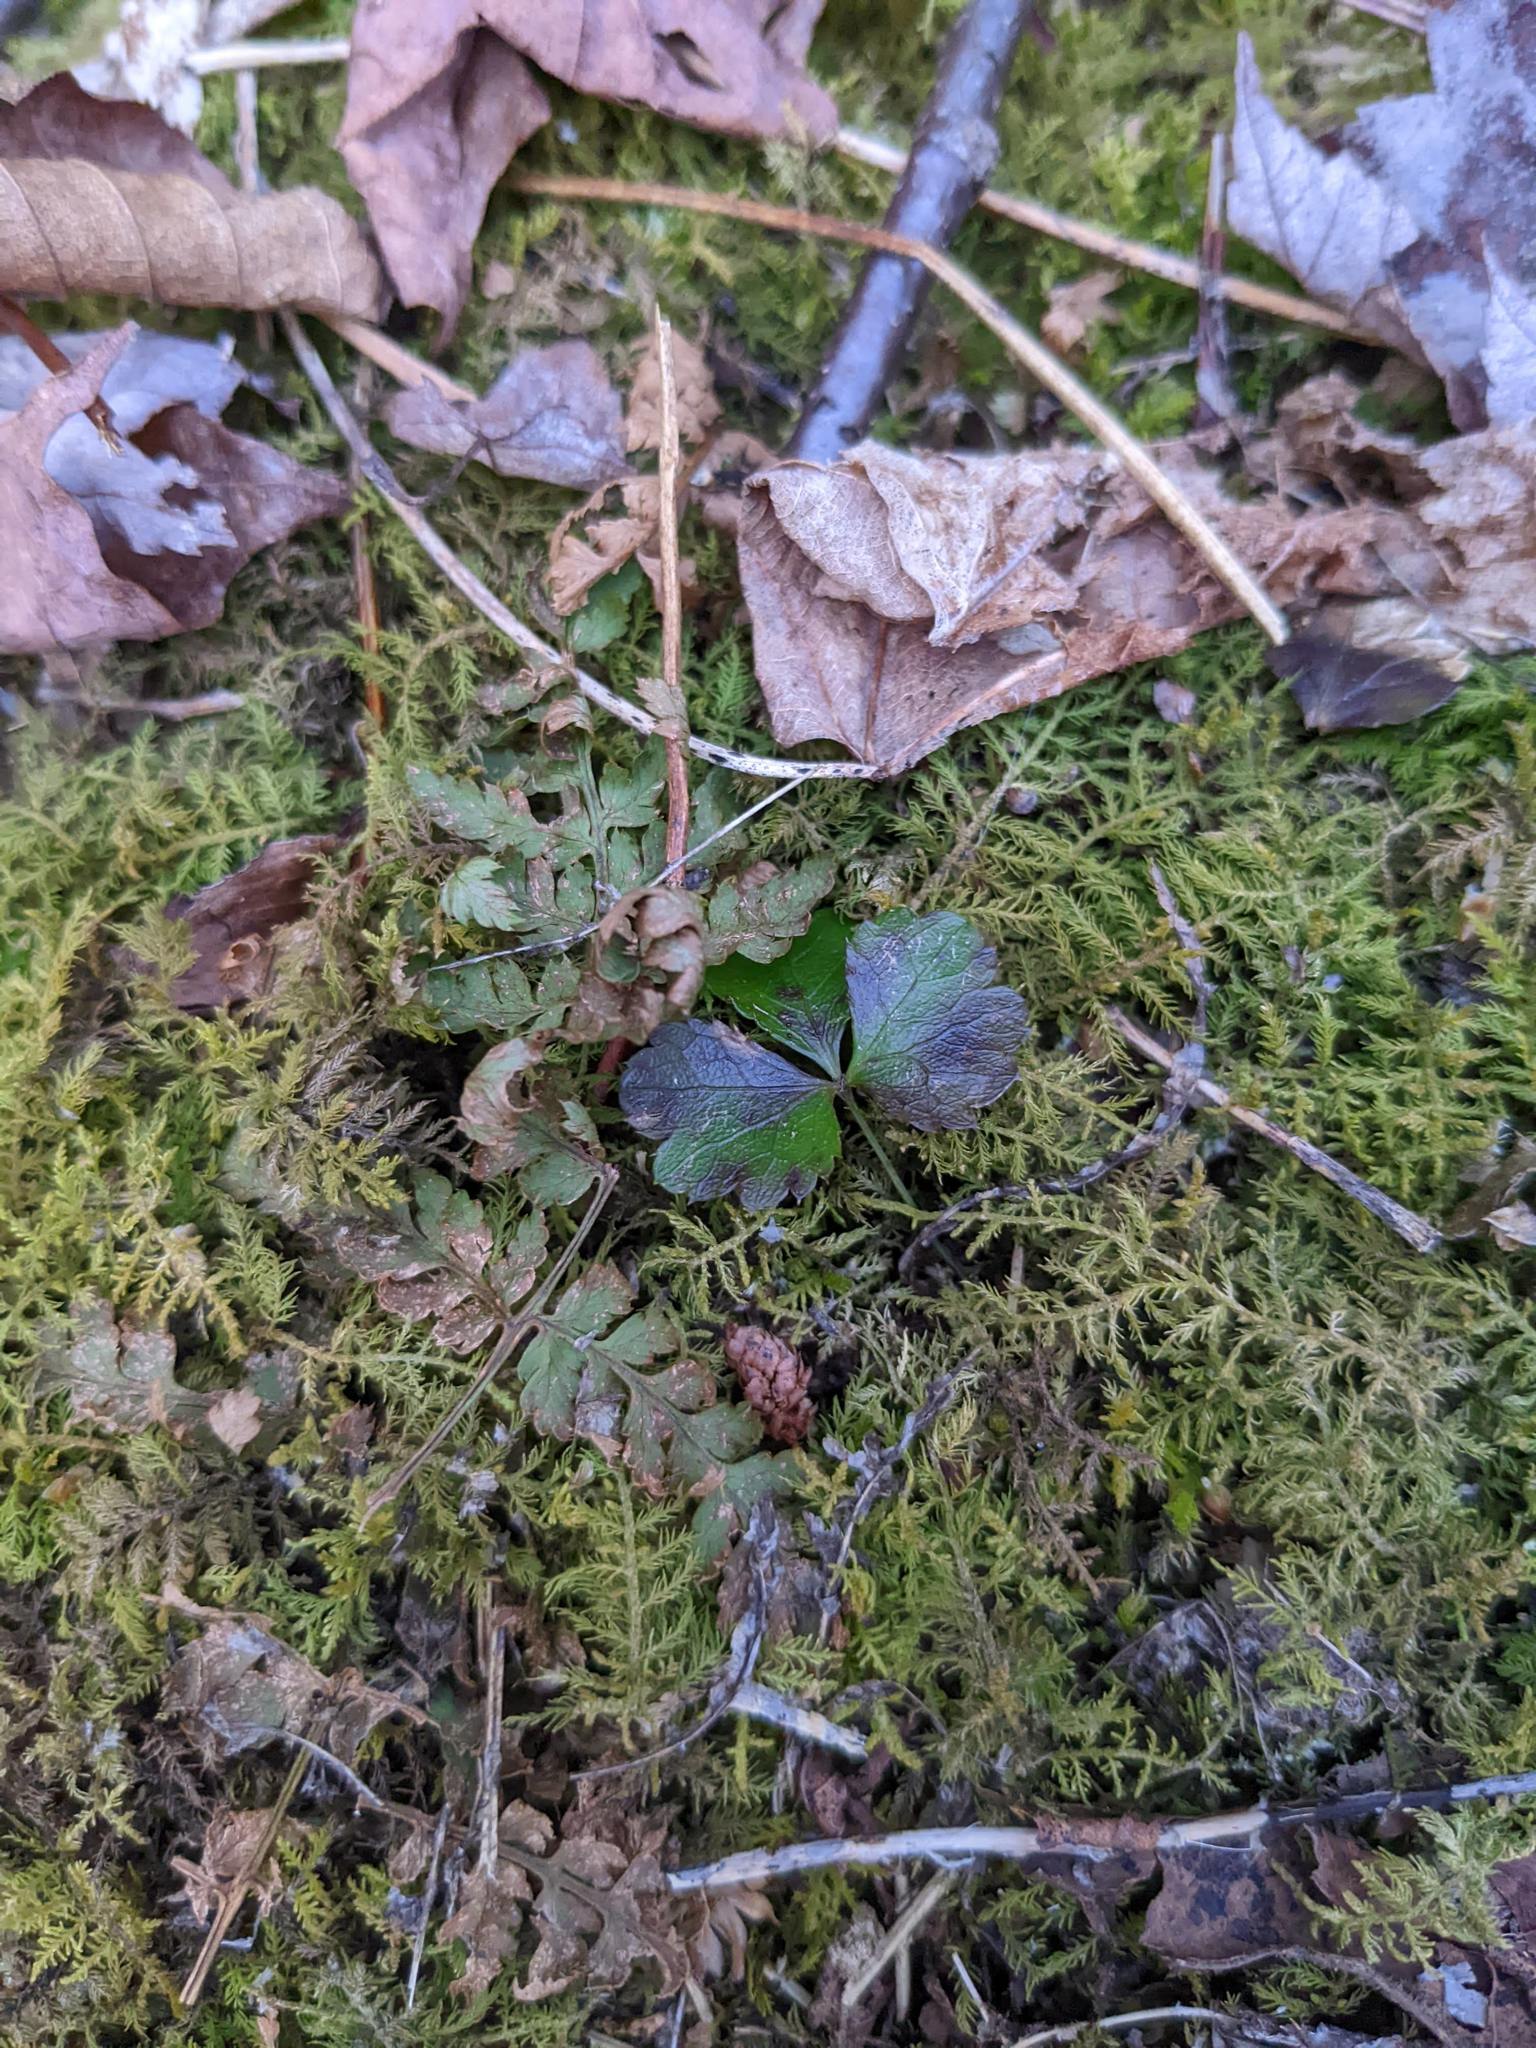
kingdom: Plantae
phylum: Tracheophyta
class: Magnoliopsida
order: Ranunculales
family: Ranunculaceae
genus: Coptis
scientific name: Coptis trifolia
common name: Canker-root
